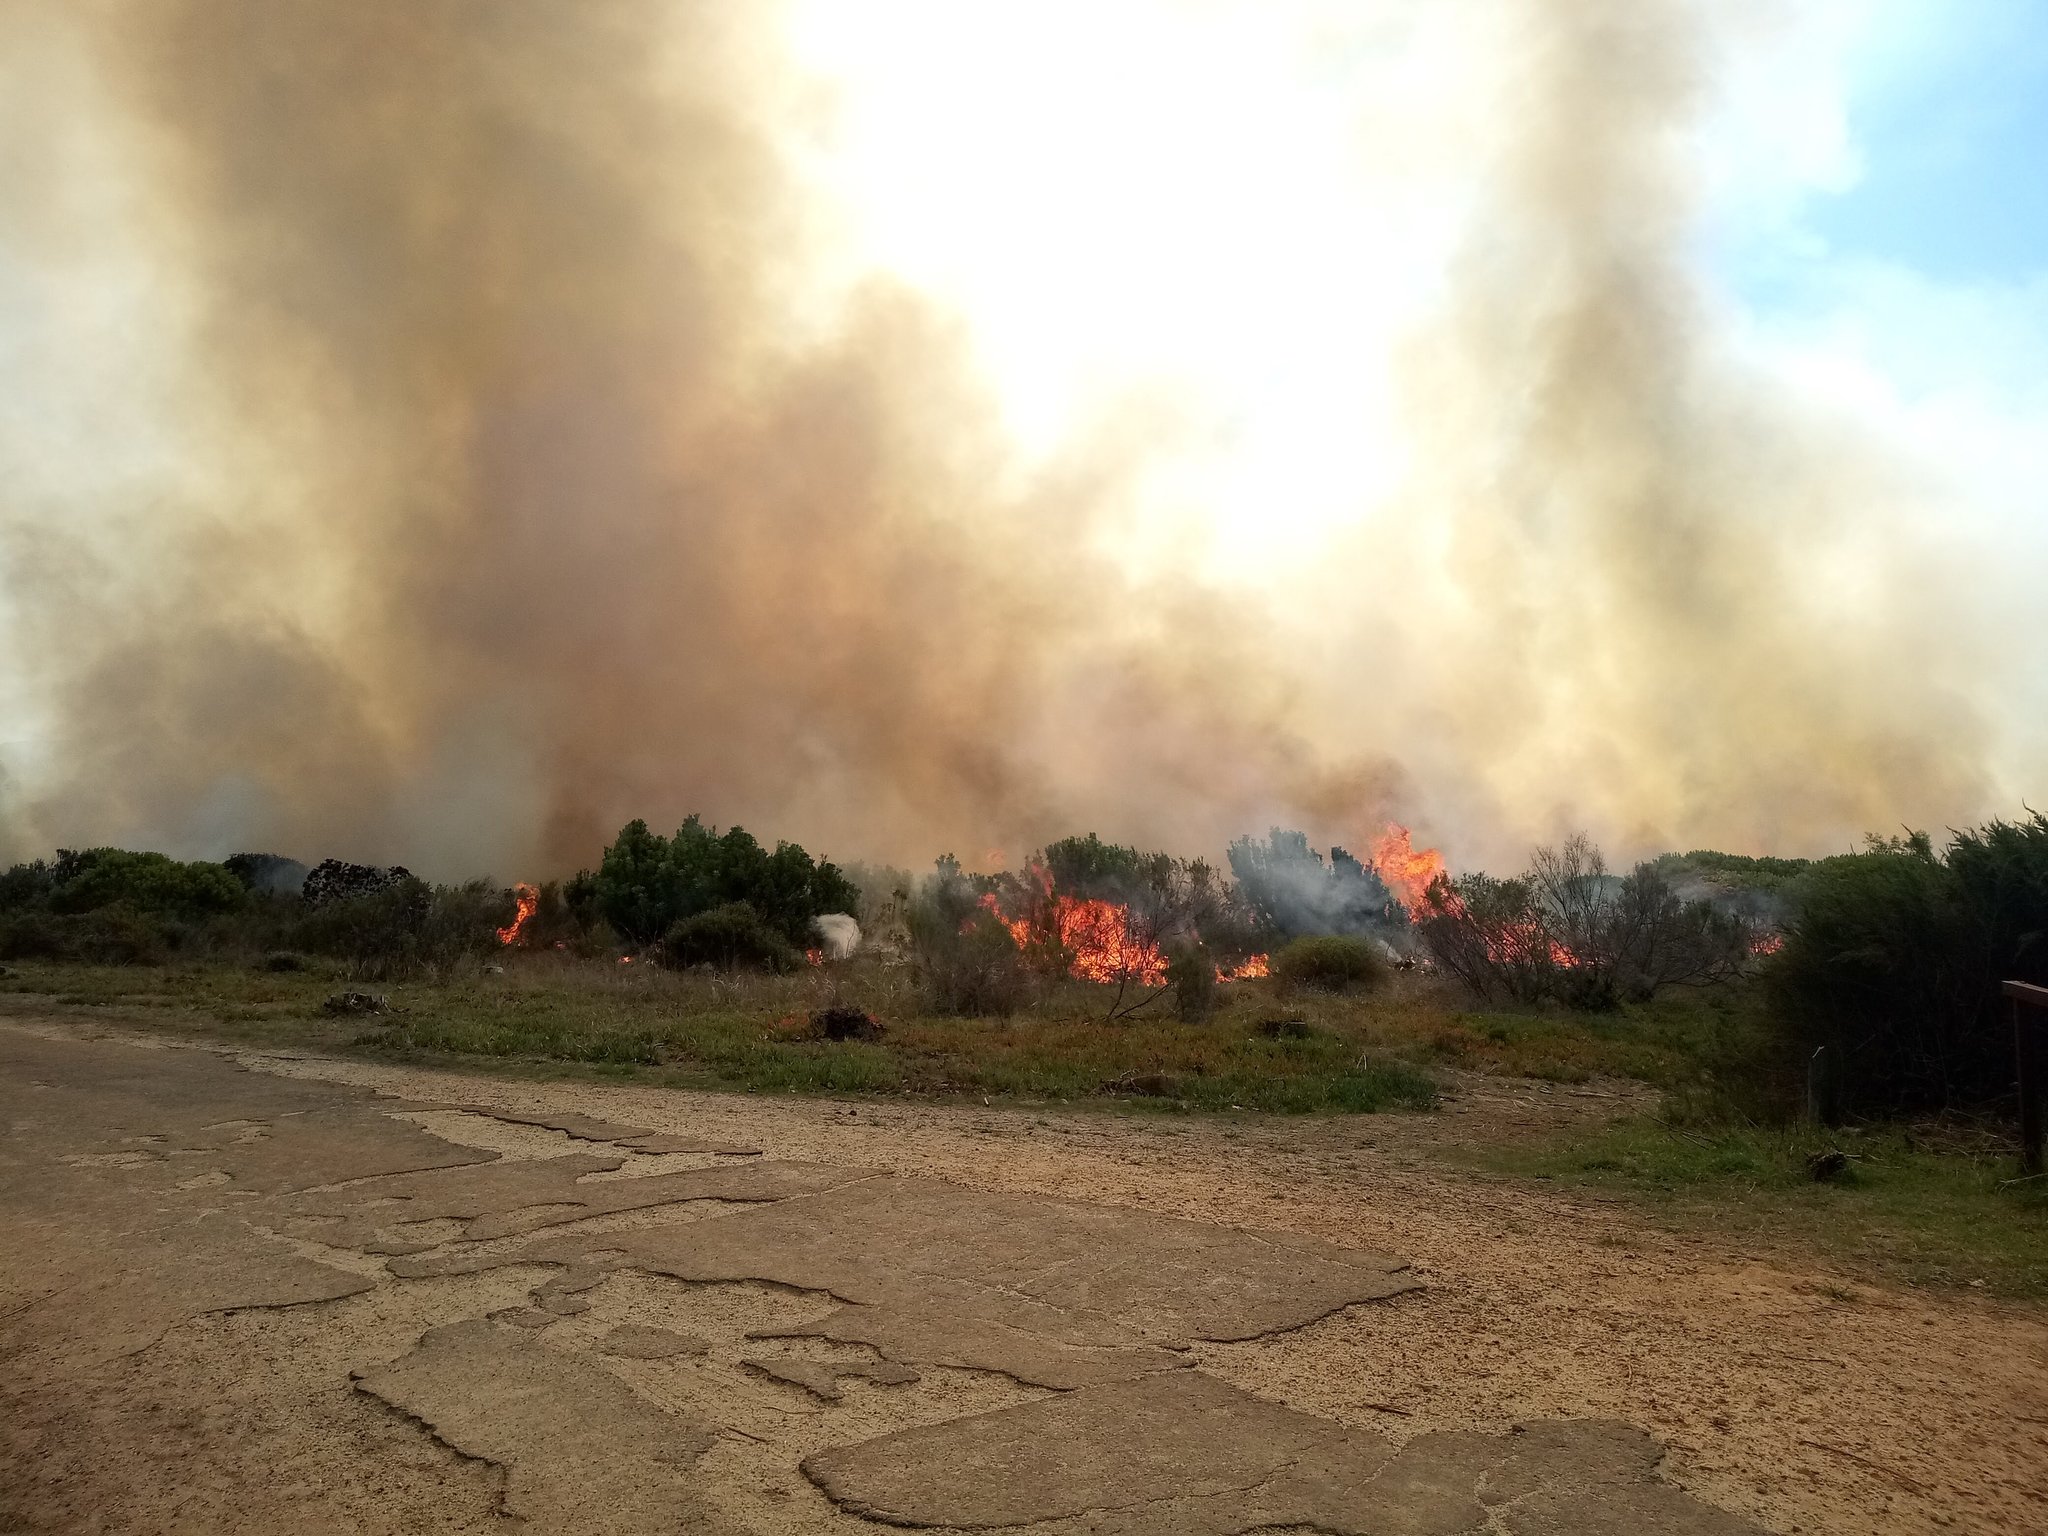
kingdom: Plantae
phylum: Tracheophyta
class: Magnoliopsida
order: Malvales
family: Thymelaeaceae
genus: Passerina
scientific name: Passerina corymbosa
